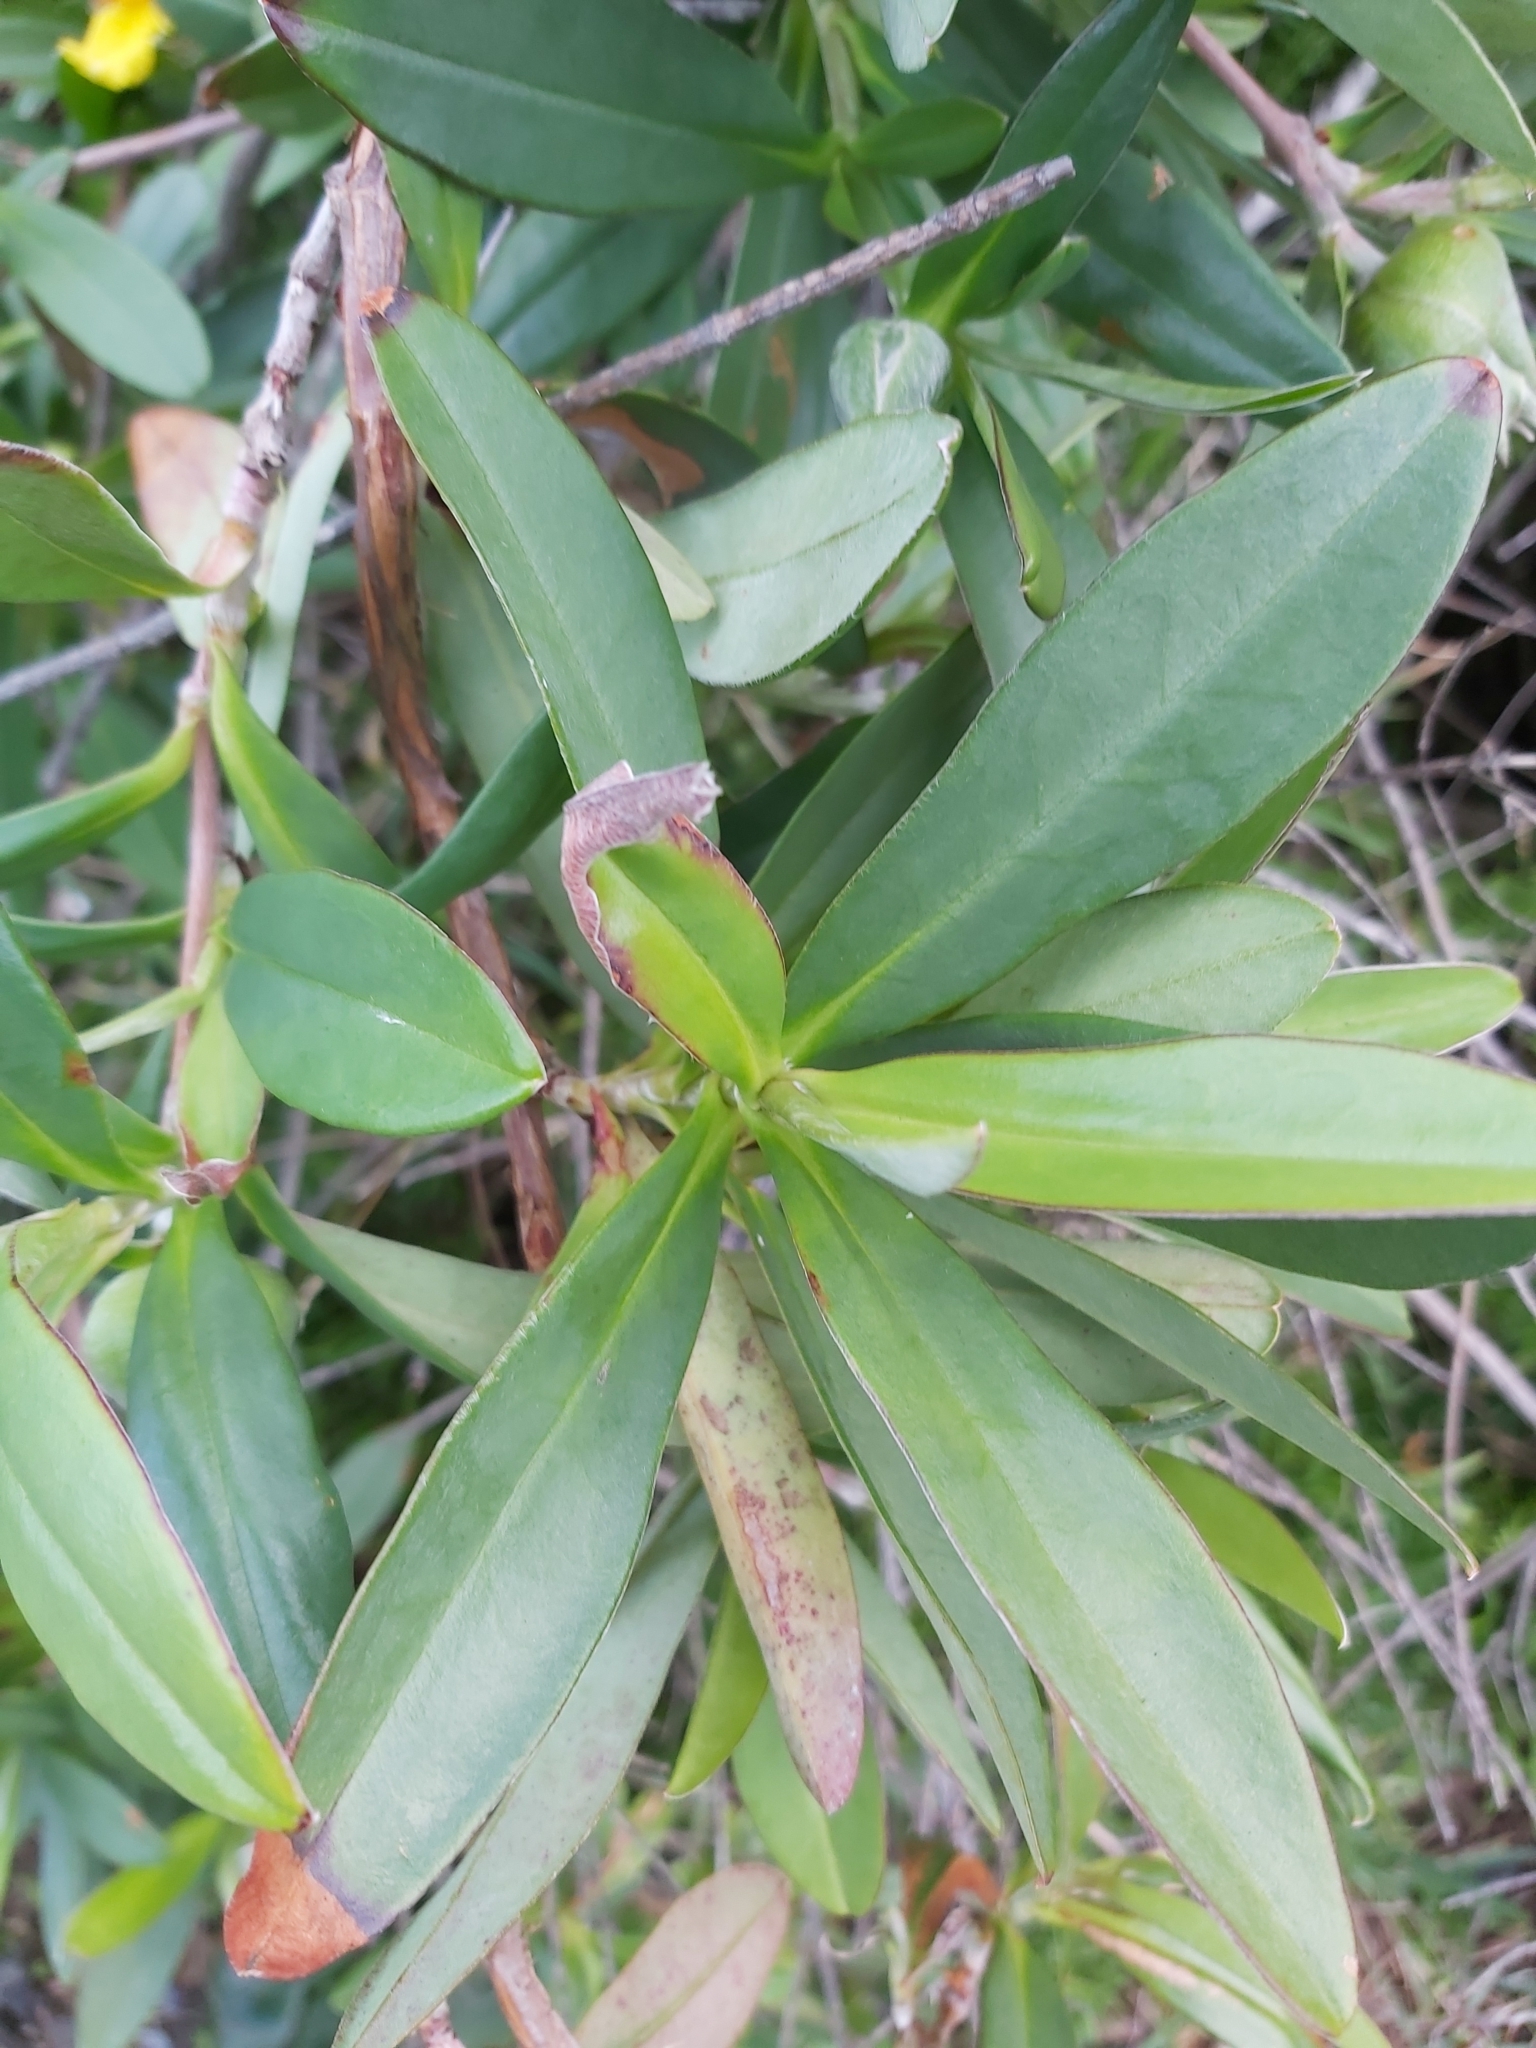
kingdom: Plantae
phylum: Tracheophyta
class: Magnoliopsida
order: Dilleniales
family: Dilleniaceae
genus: Hibbertia
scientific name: Hibbertia scandens
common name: Climbing guinea-flower
